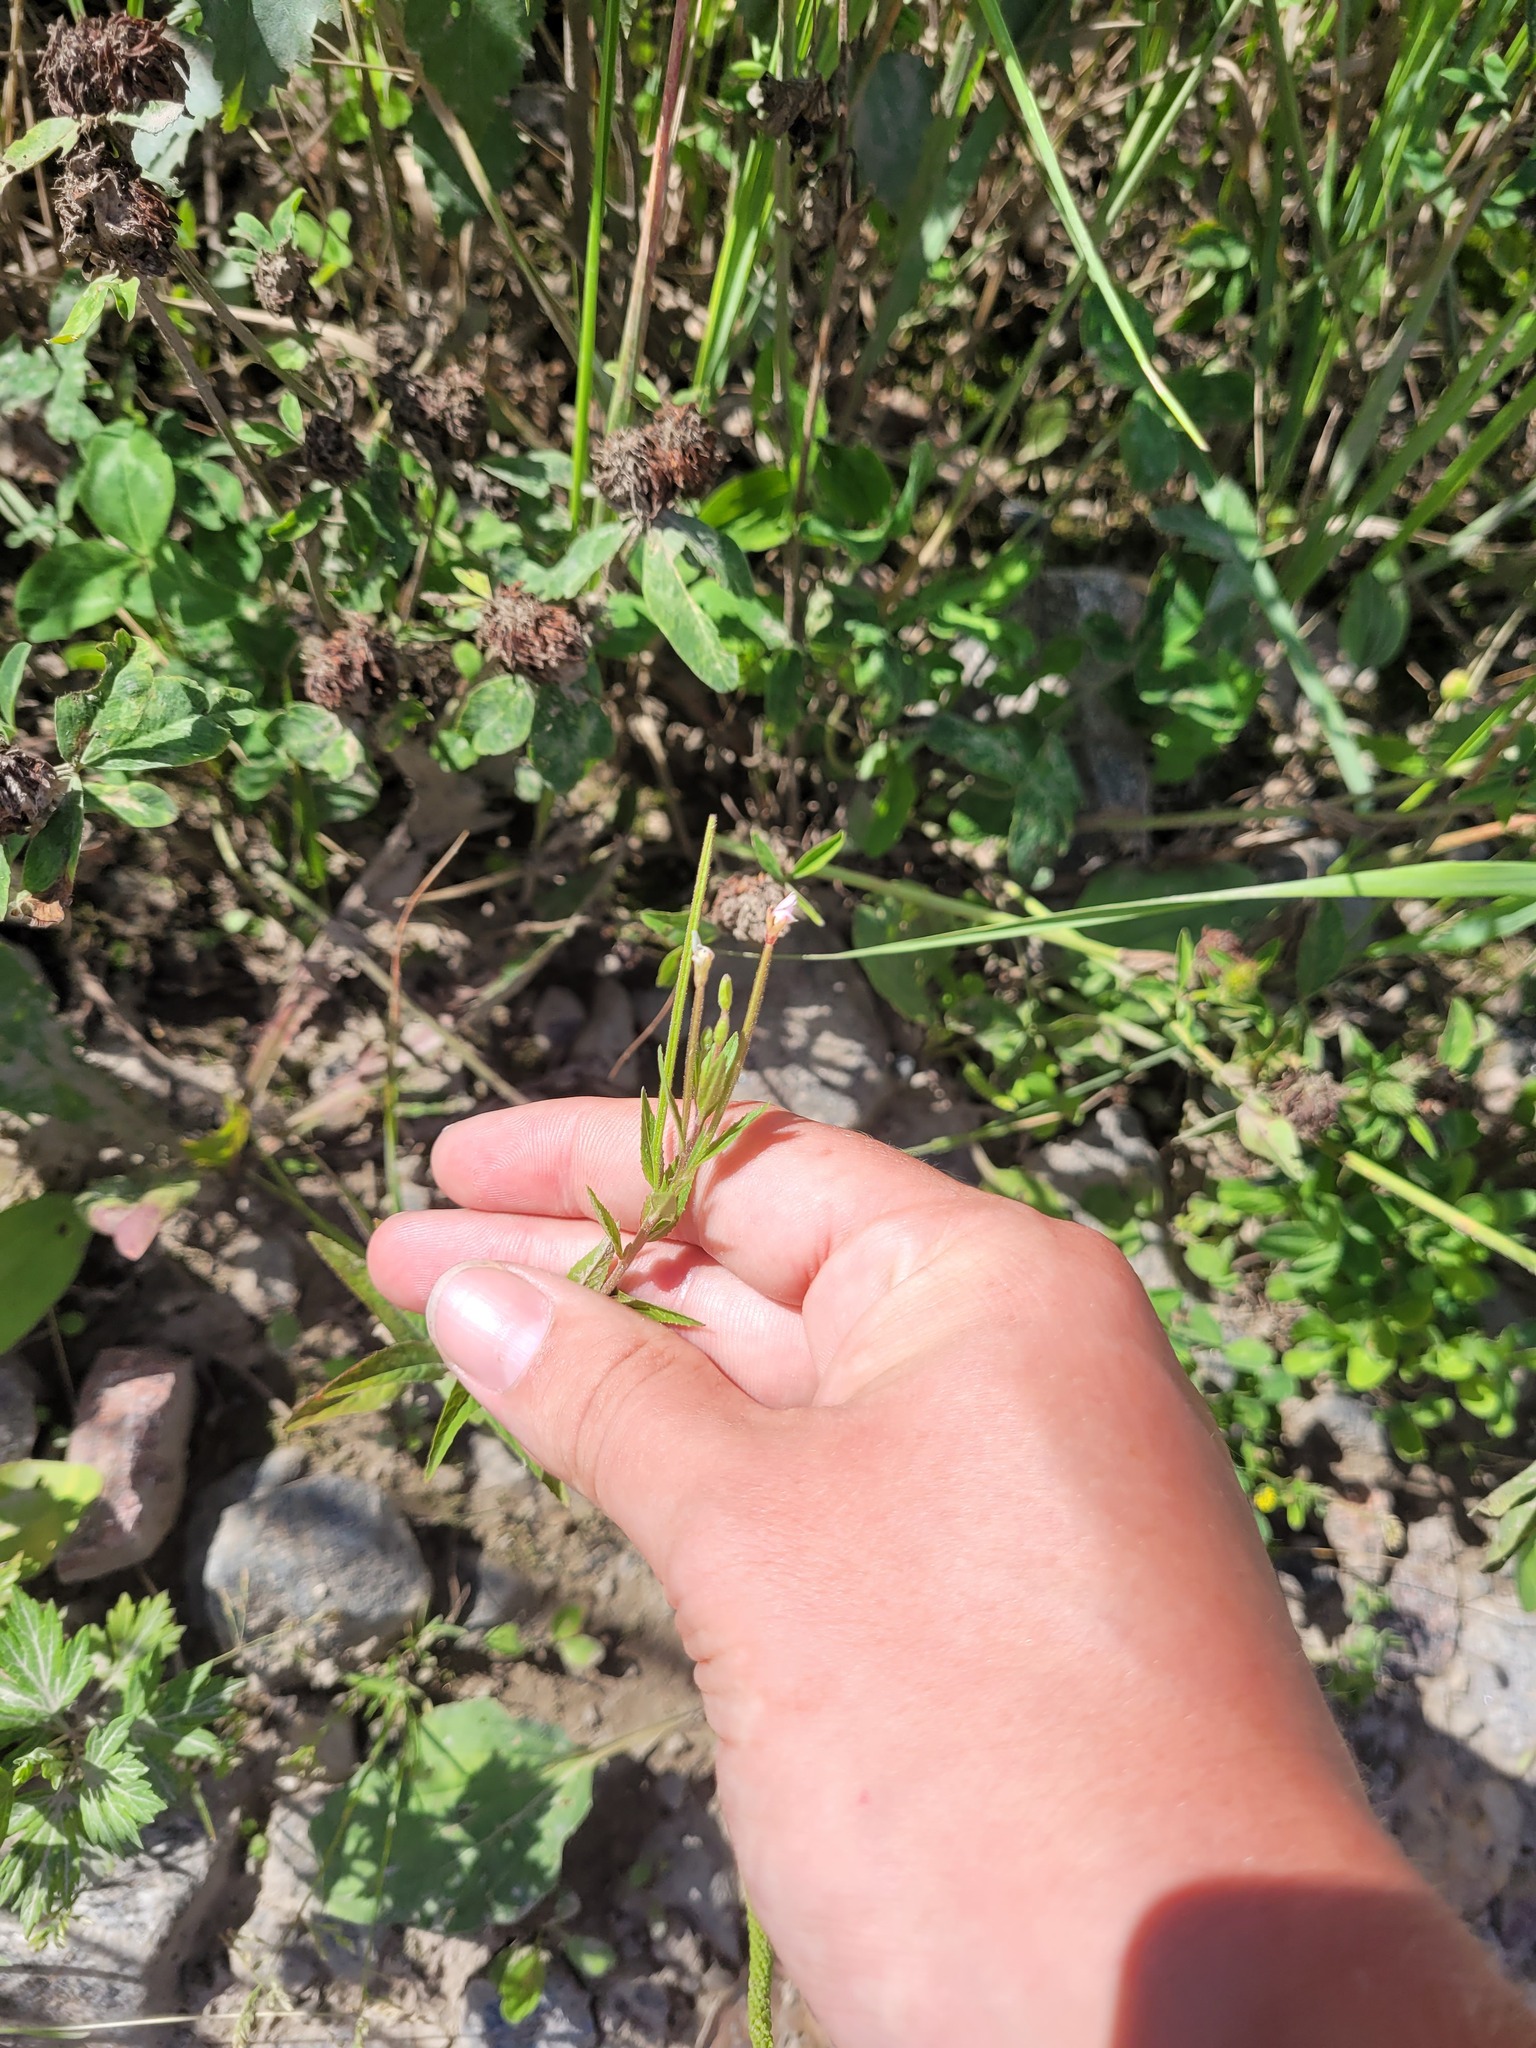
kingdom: Plantae
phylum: Tracheophyta
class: Magnoliopsida
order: Myrtales
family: Onagraceae
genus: Epilobium
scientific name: Epilobium pseudorubescens
